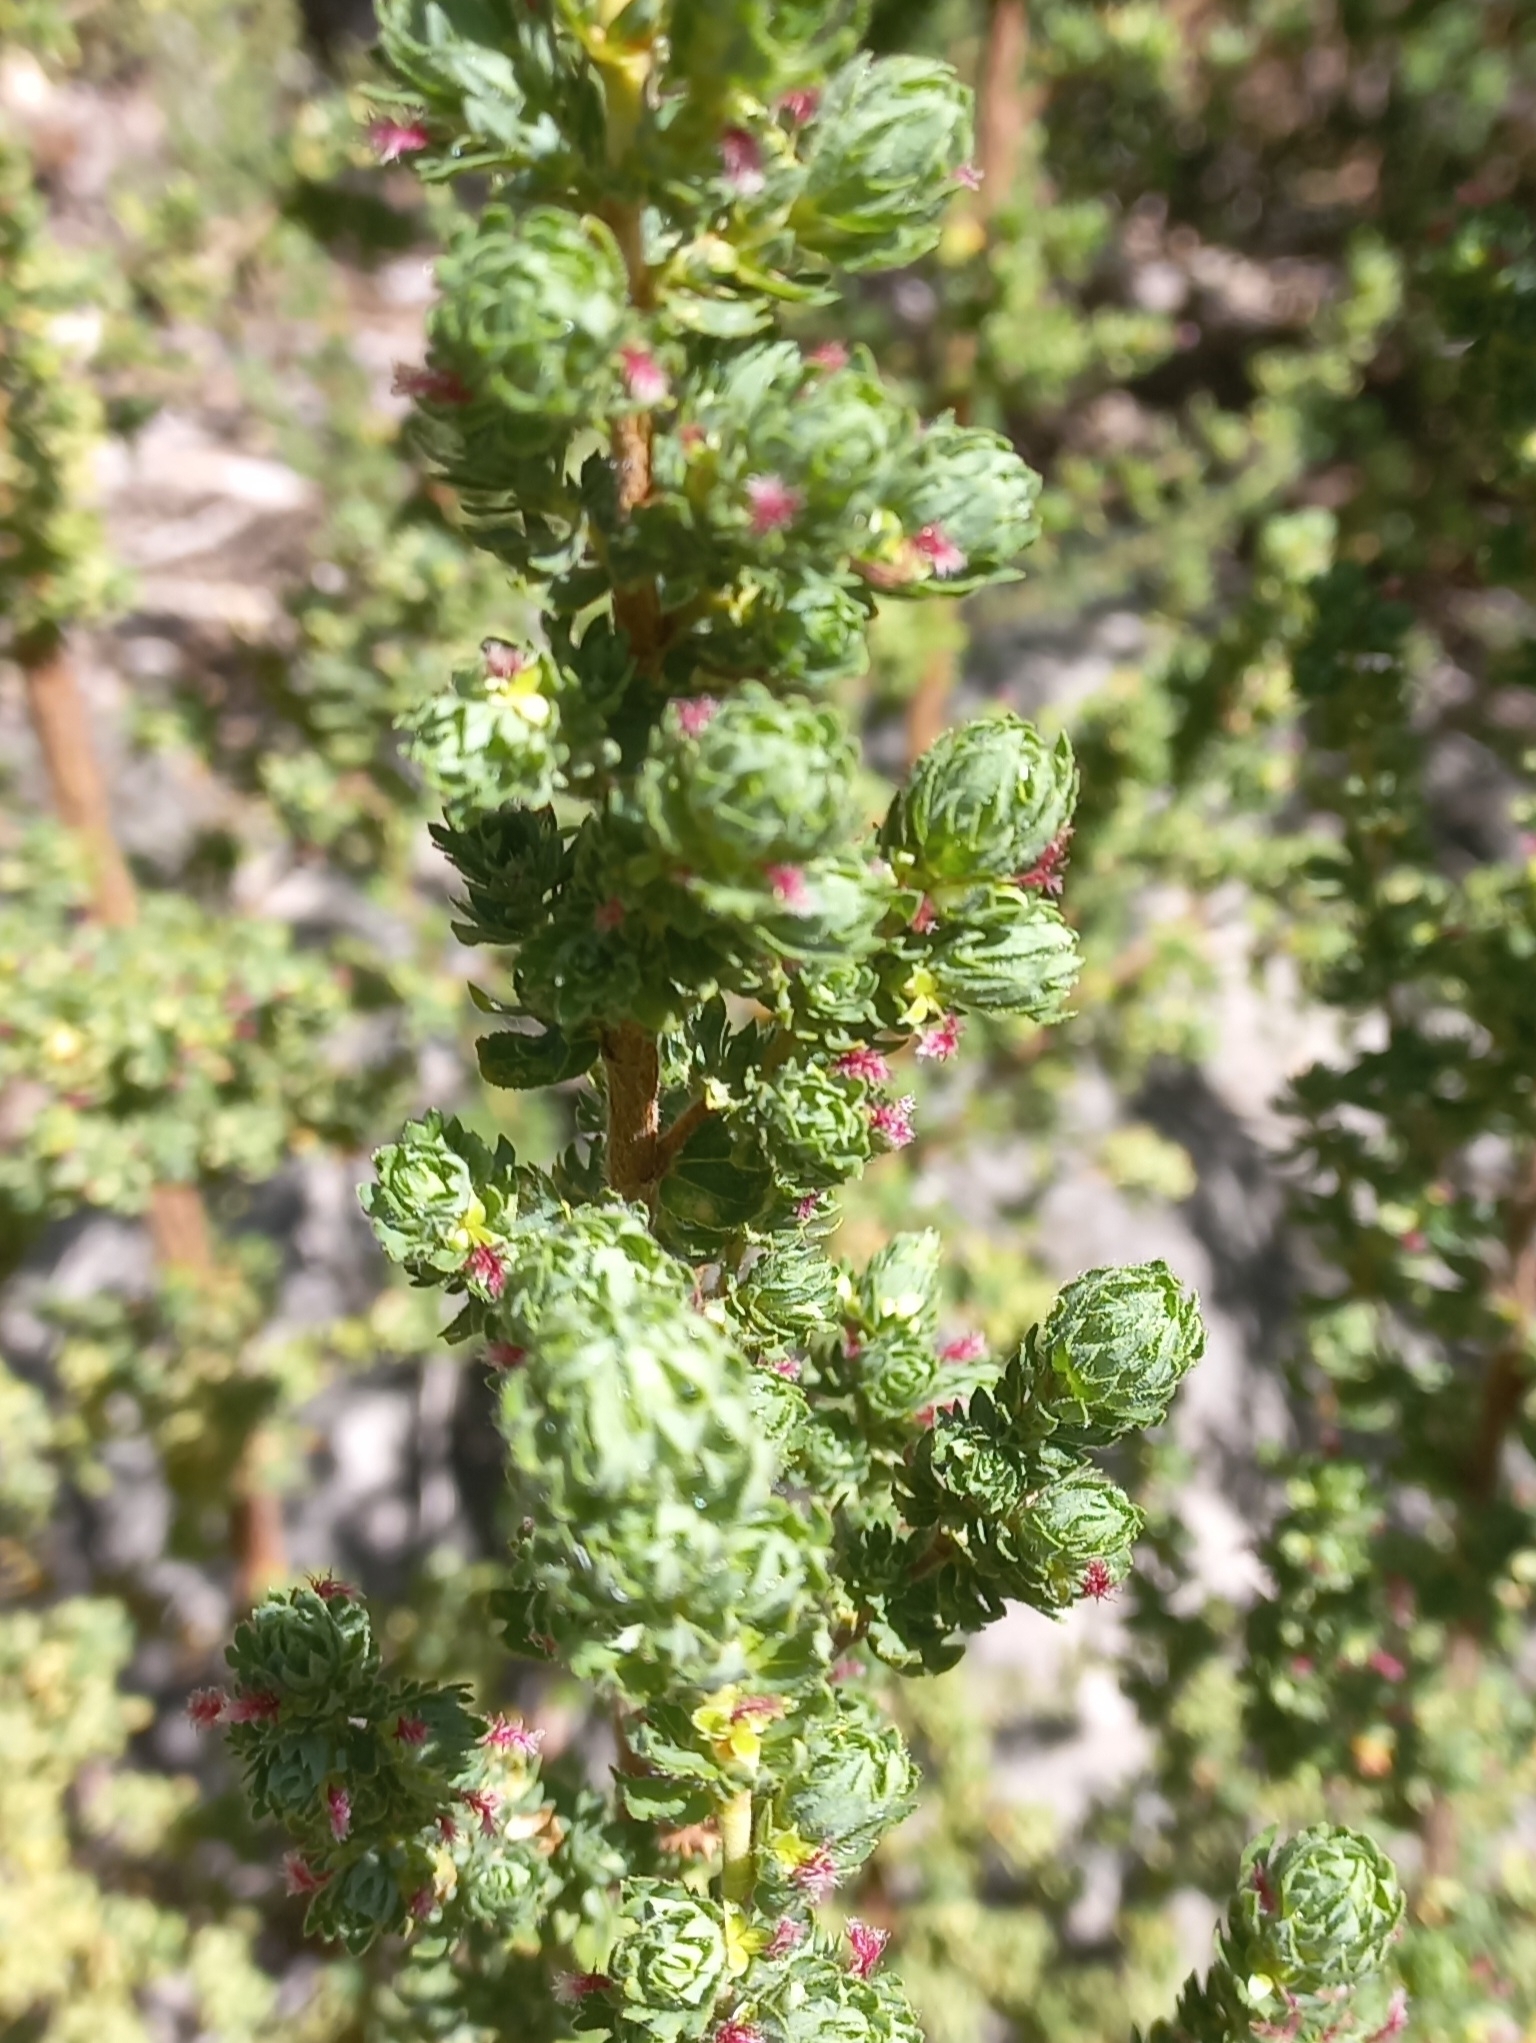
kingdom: Plantae
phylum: Tracheophyta
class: Magnoliopsida
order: Rosales
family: Rosaceae
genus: Cliffortia
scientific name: Cliffortia polygonifolia
